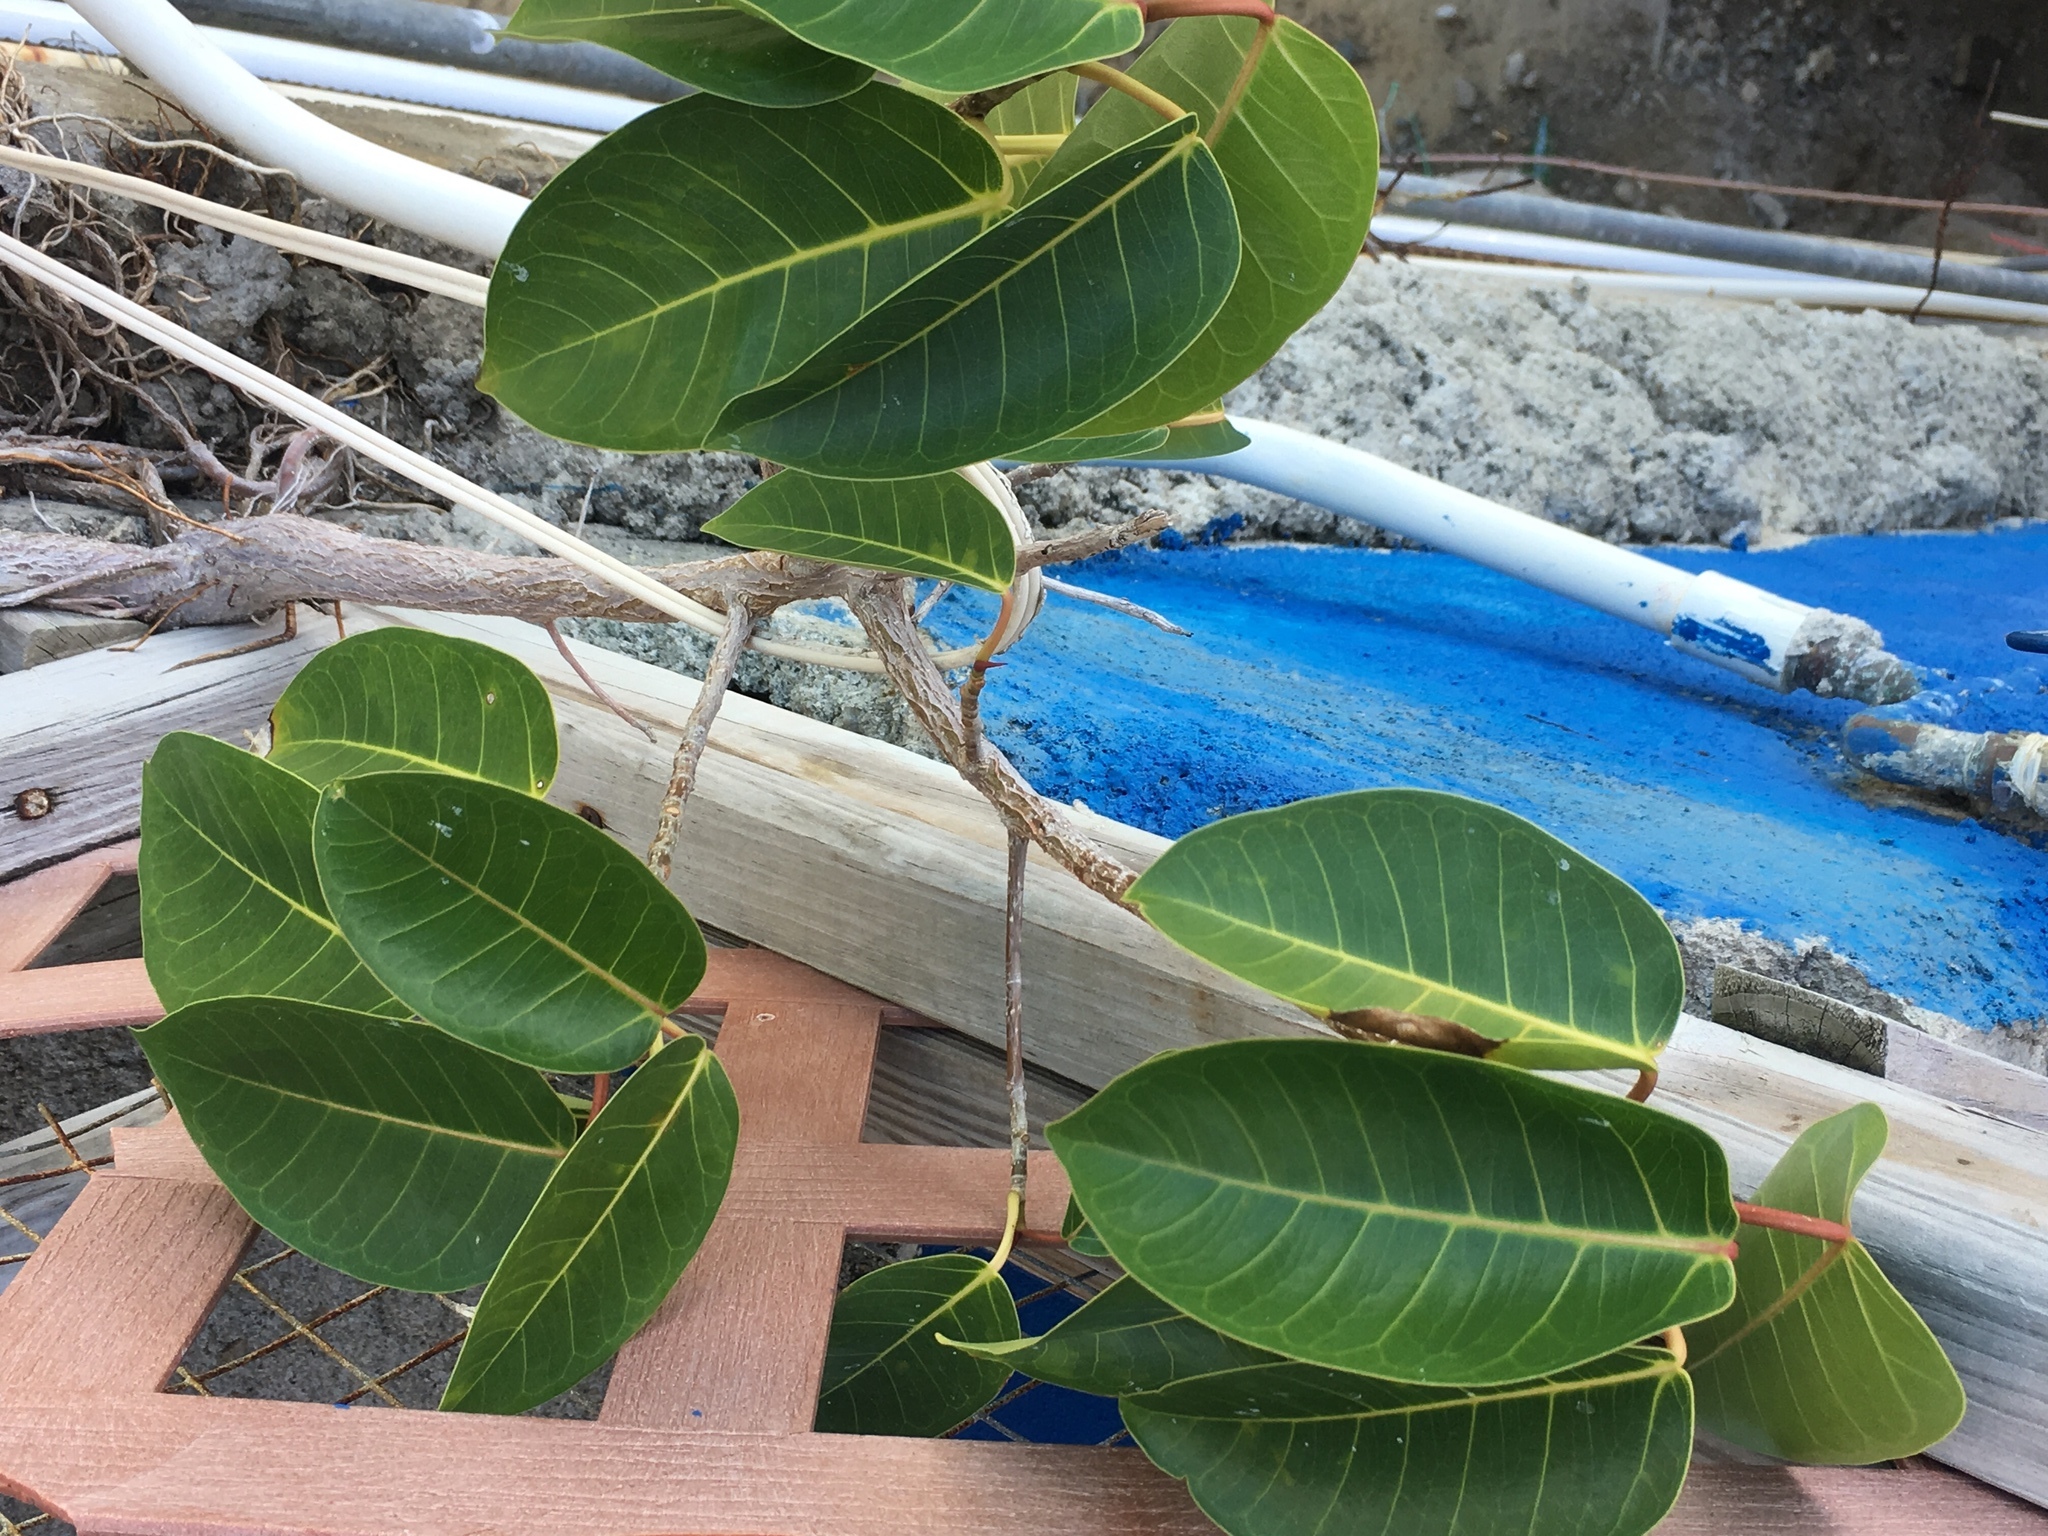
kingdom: Plantae
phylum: Tracheophyta
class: Magnoliopsida
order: Rosales
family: Moraceae
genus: Ficus
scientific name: Ficus citrifolia
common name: Strangler fig
